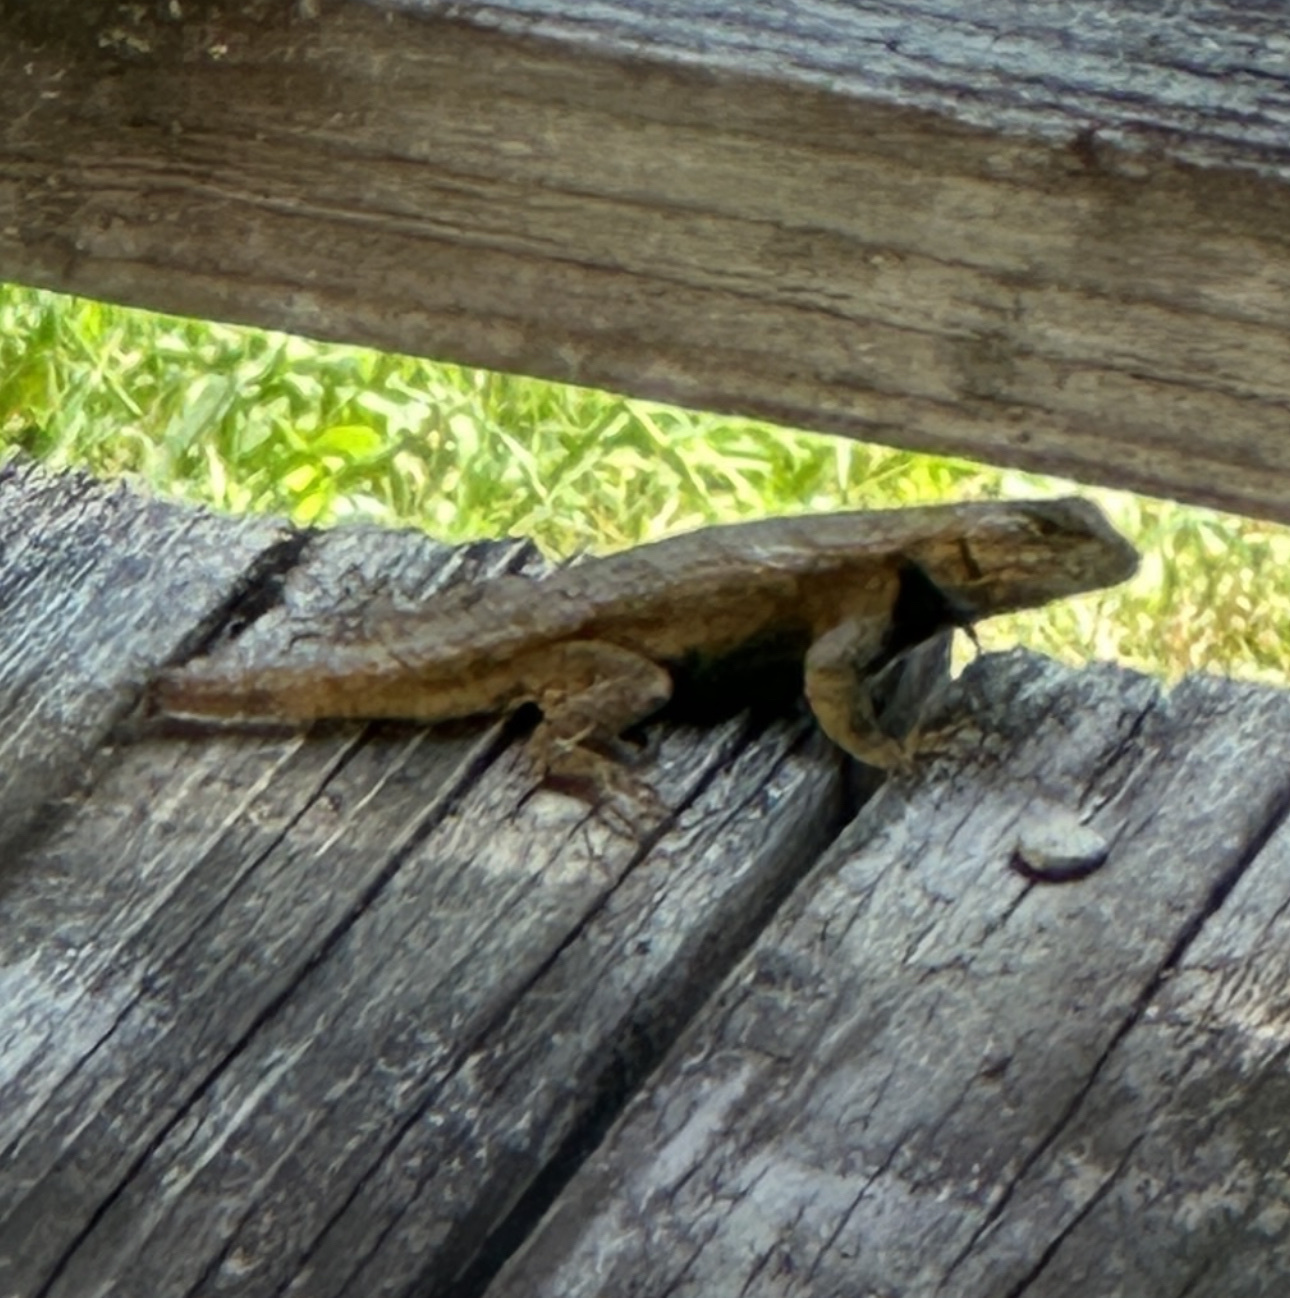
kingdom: Animalia
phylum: Chordata
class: Squamata
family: Phrynosomatidae
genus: Sceloporus
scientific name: Sceloporus undulatus
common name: Eastern fence lizard
